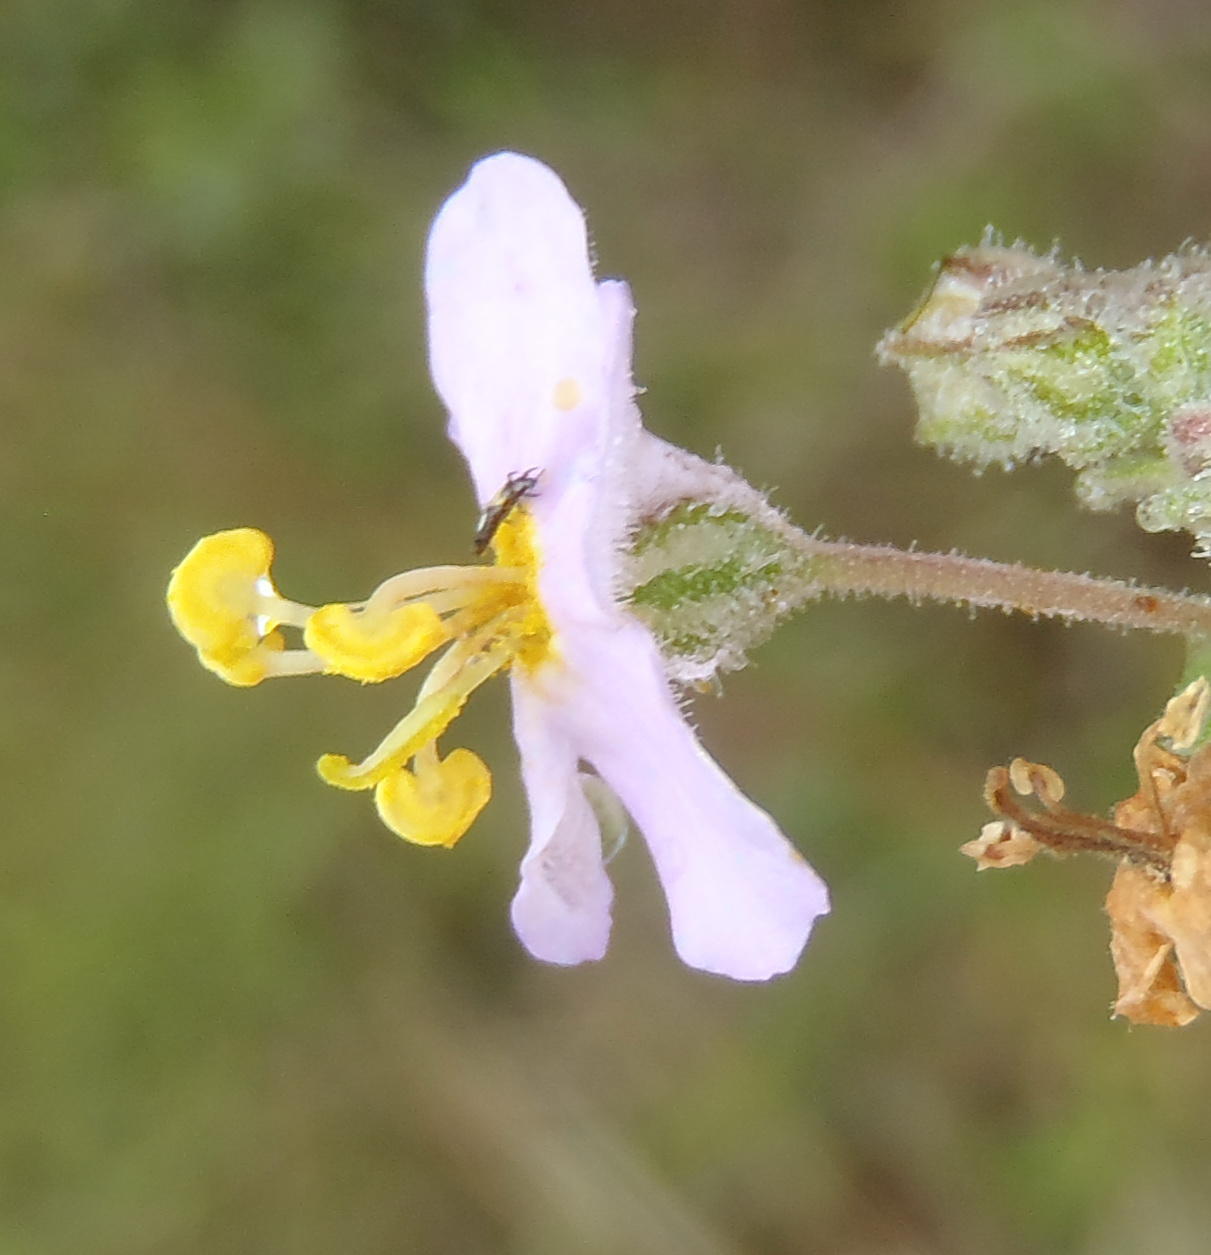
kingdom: Plantae
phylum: Tracheophyta
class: Magnoliopsida
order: Lamiales
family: Scrophulariaceae
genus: Chaenostoma
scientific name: Chaenostoma caeruleum
